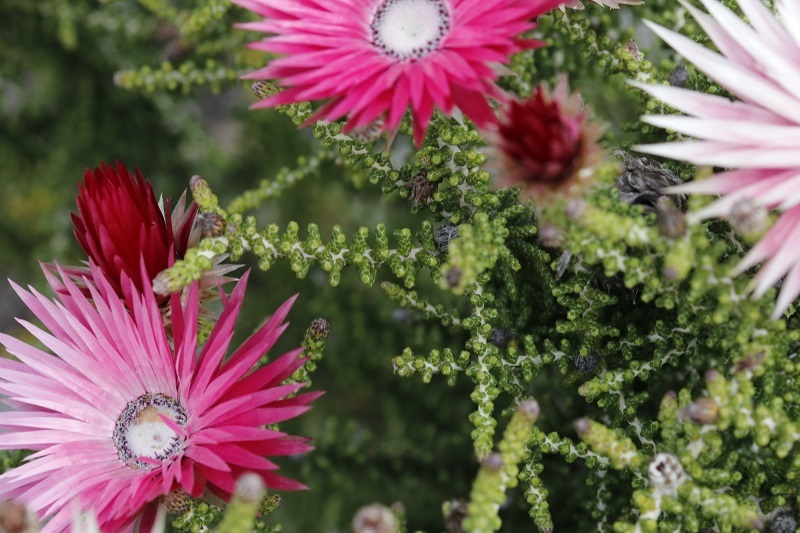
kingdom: Plantae
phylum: Tracheophyta
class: Magnoliopsida
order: Asterales
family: Asteraceae
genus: Phaenocoma
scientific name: Phaenocoma prolifera
